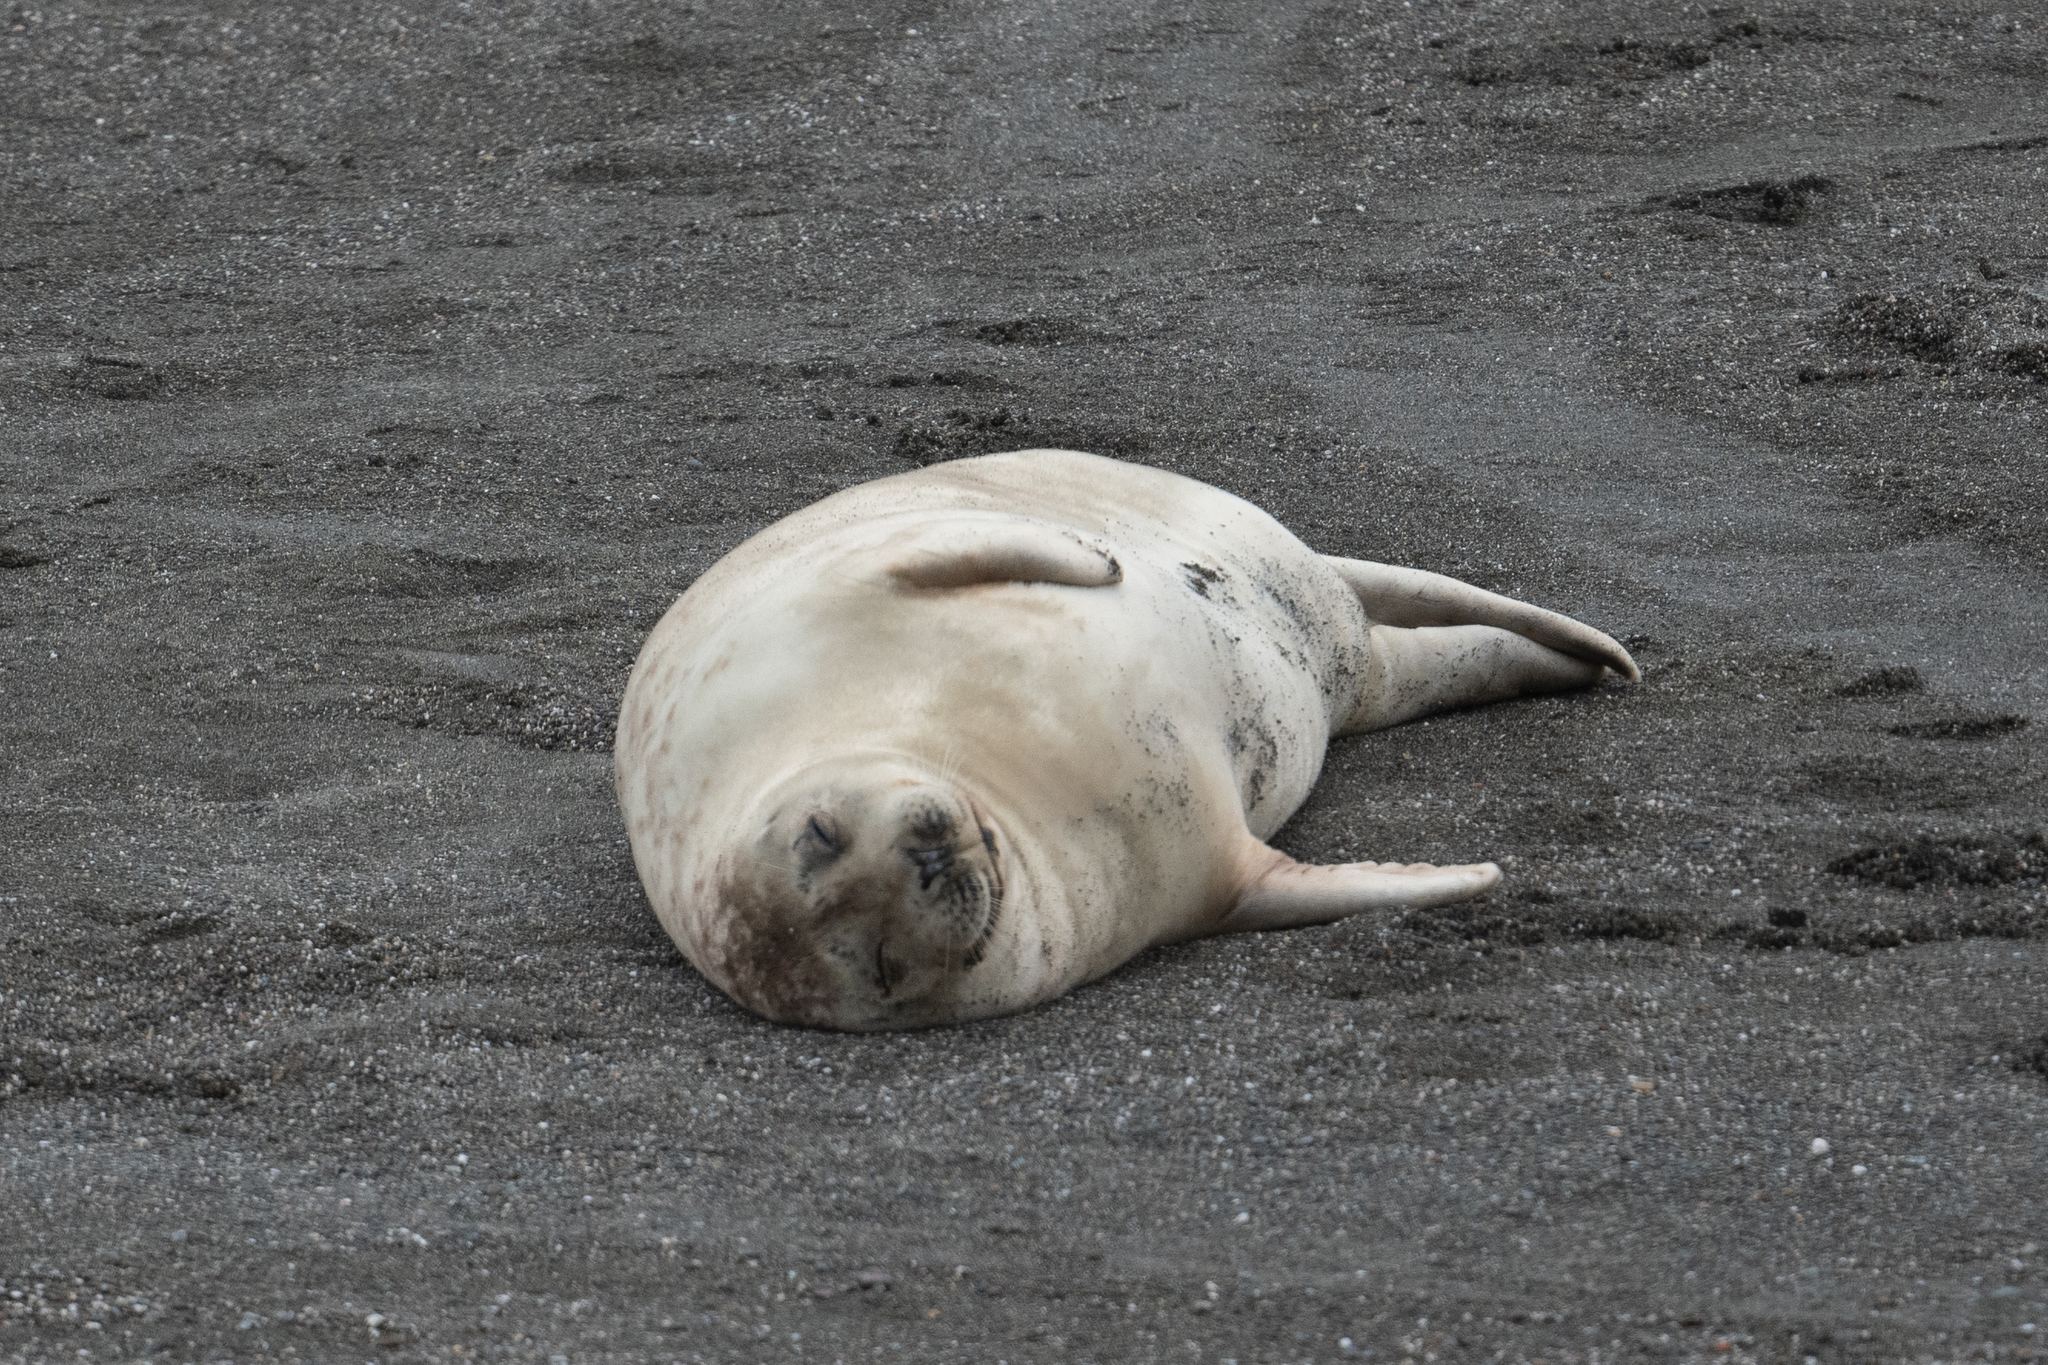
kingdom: Animalia
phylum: Chordata
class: Mammalia
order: Carnivora
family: Phocidae
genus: Phoca
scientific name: Phoca vitulina
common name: Harbor seal
